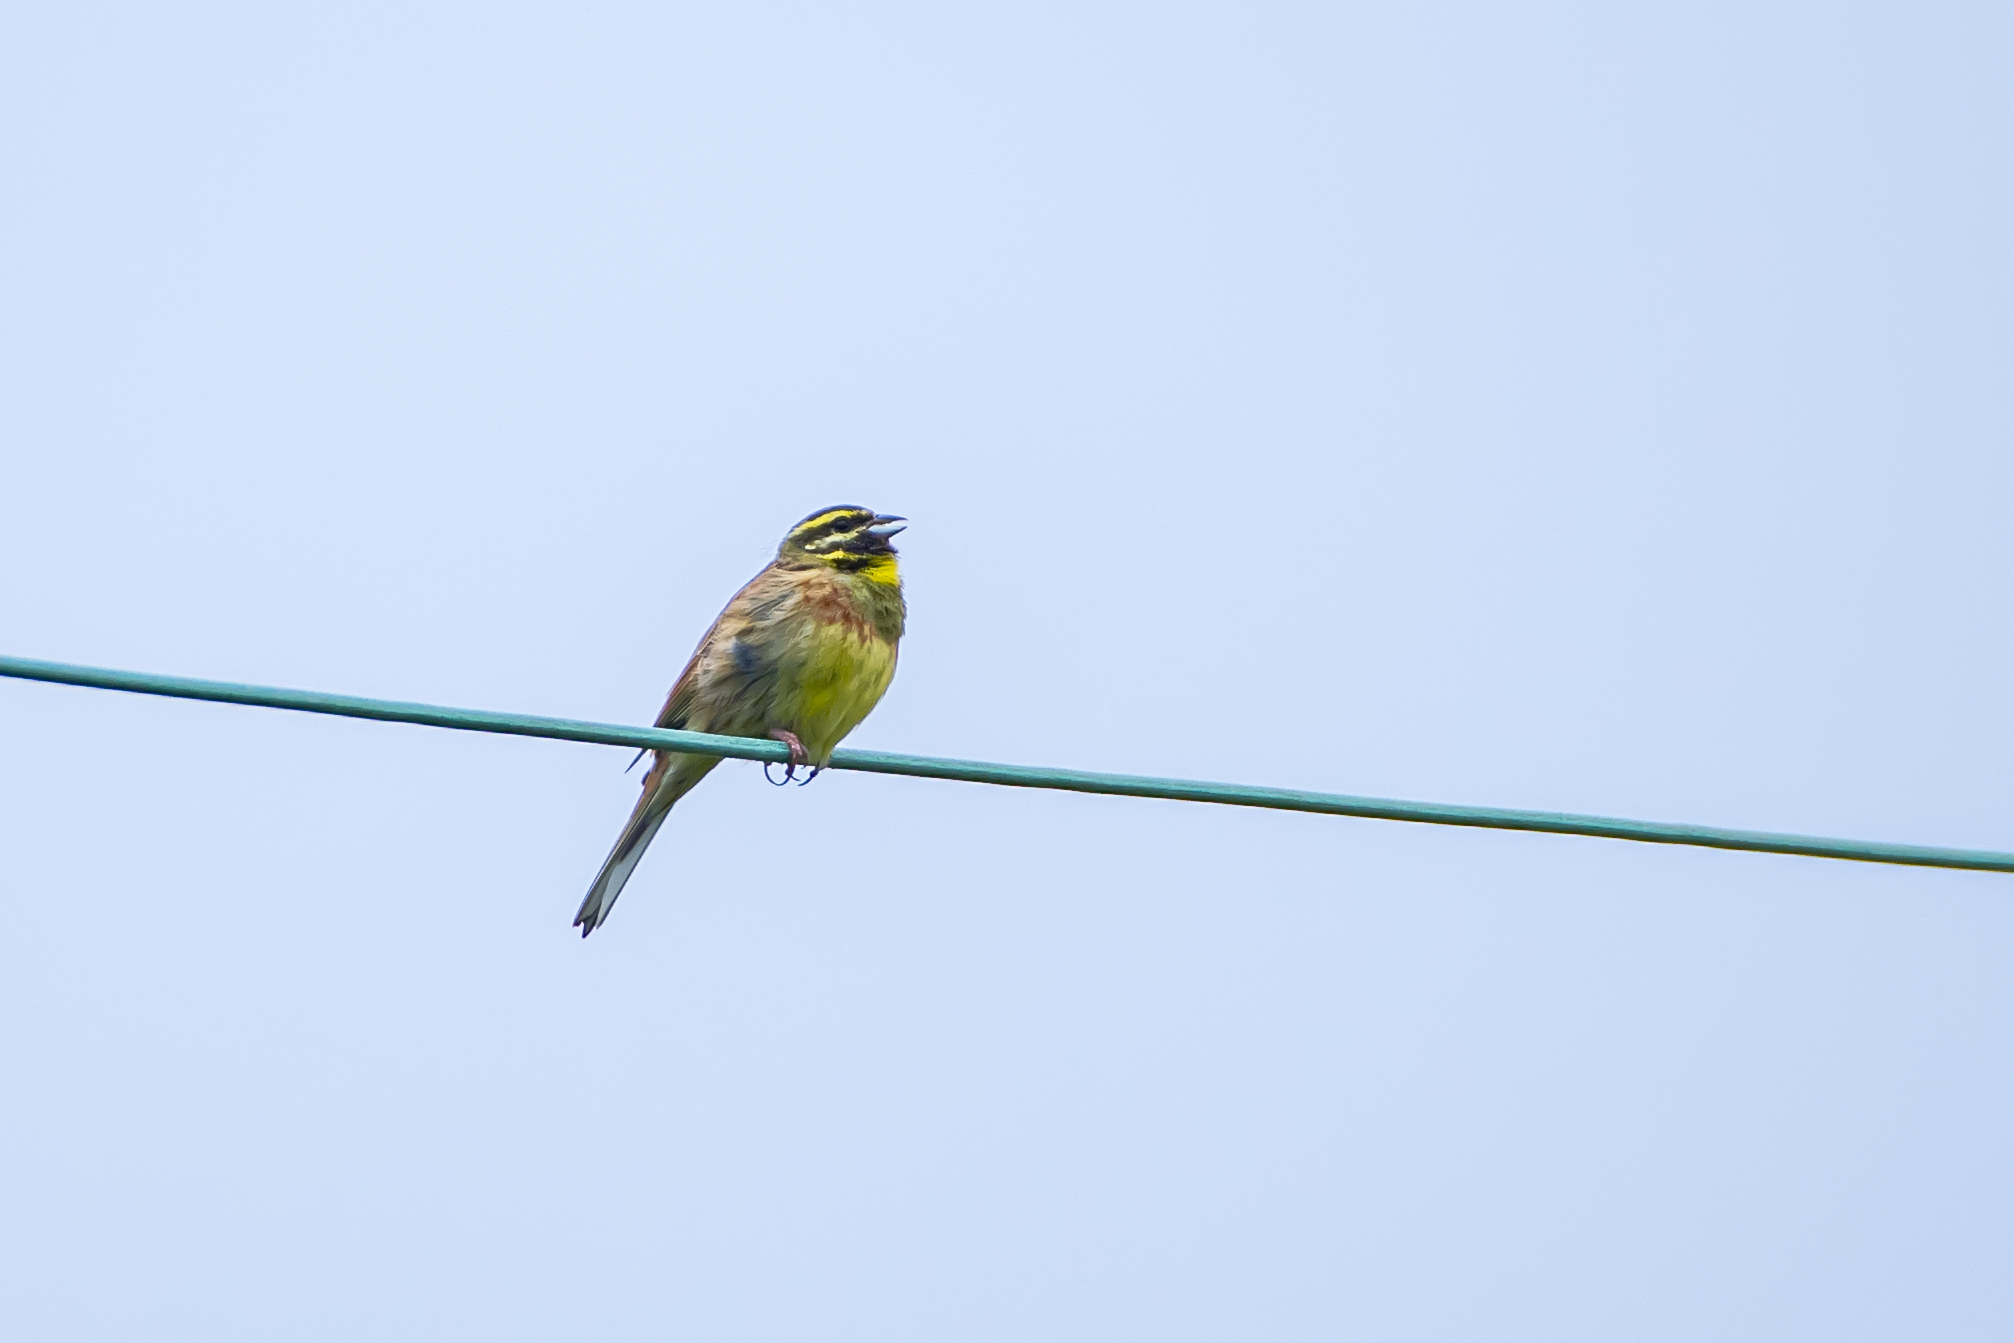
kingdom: Animalia
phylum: Chordata
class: Aves
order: Passeriformes
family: Emberizidae
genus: Emberiza
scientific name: Emberiza cirlus
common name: Cirl bunting
